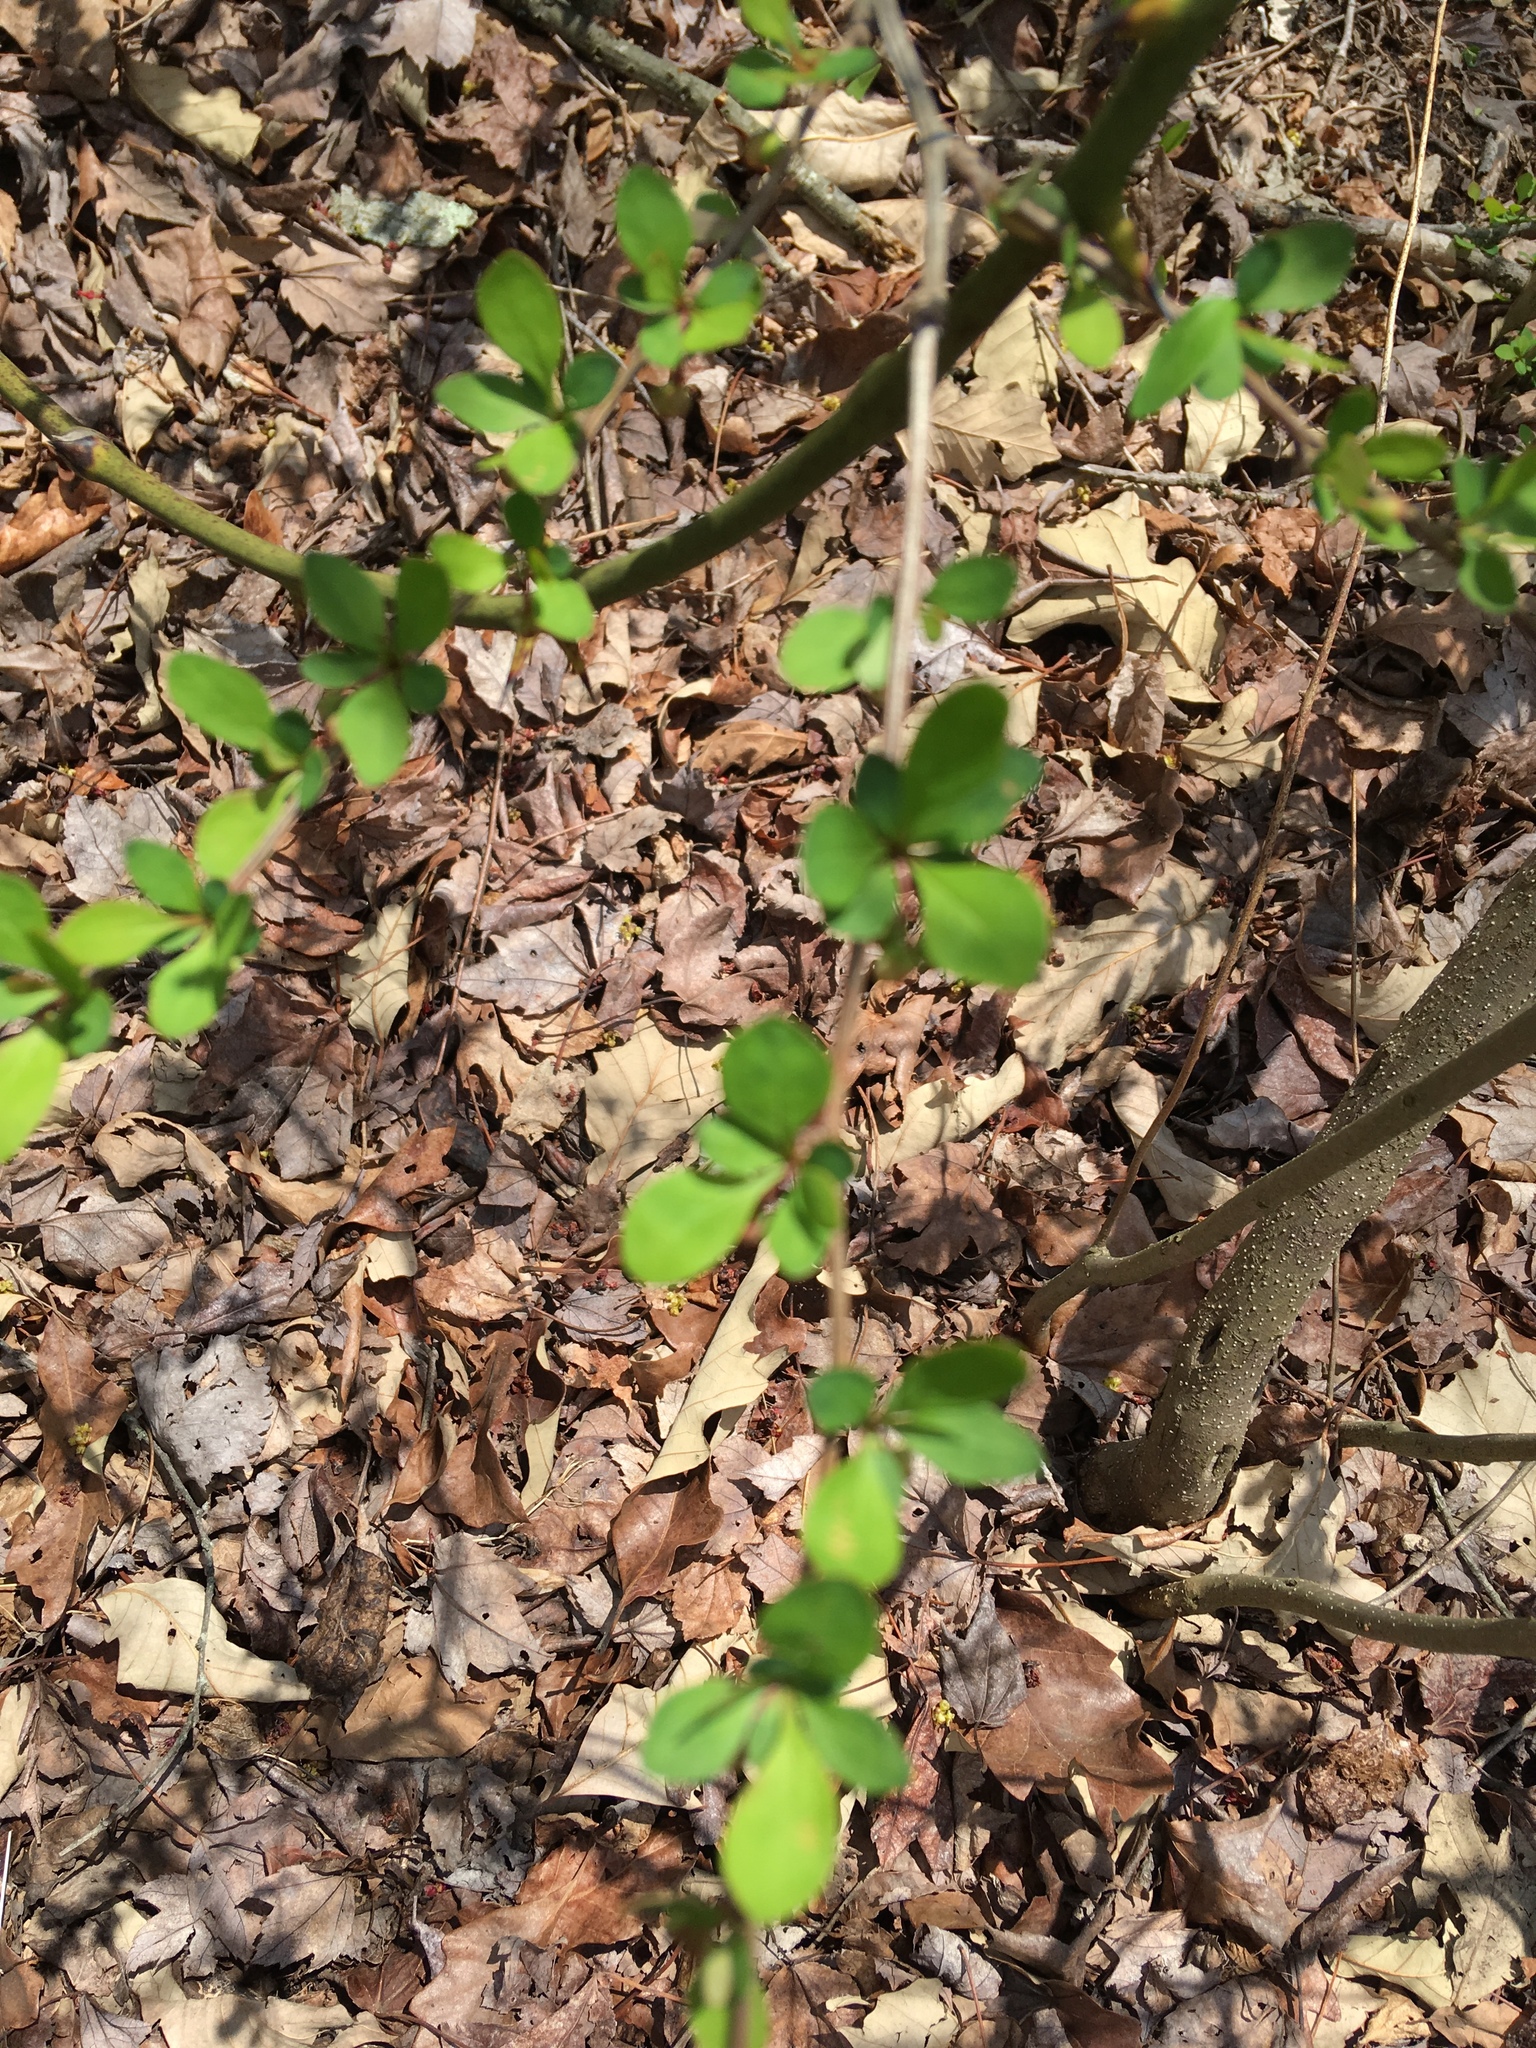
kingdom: Plantae
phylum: Tracheophyta
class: Magnoliopsida
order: Ranunculales
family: Berberidaceae
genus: Berberis
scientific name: Berberis thunbergii
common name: Japanese barberry
